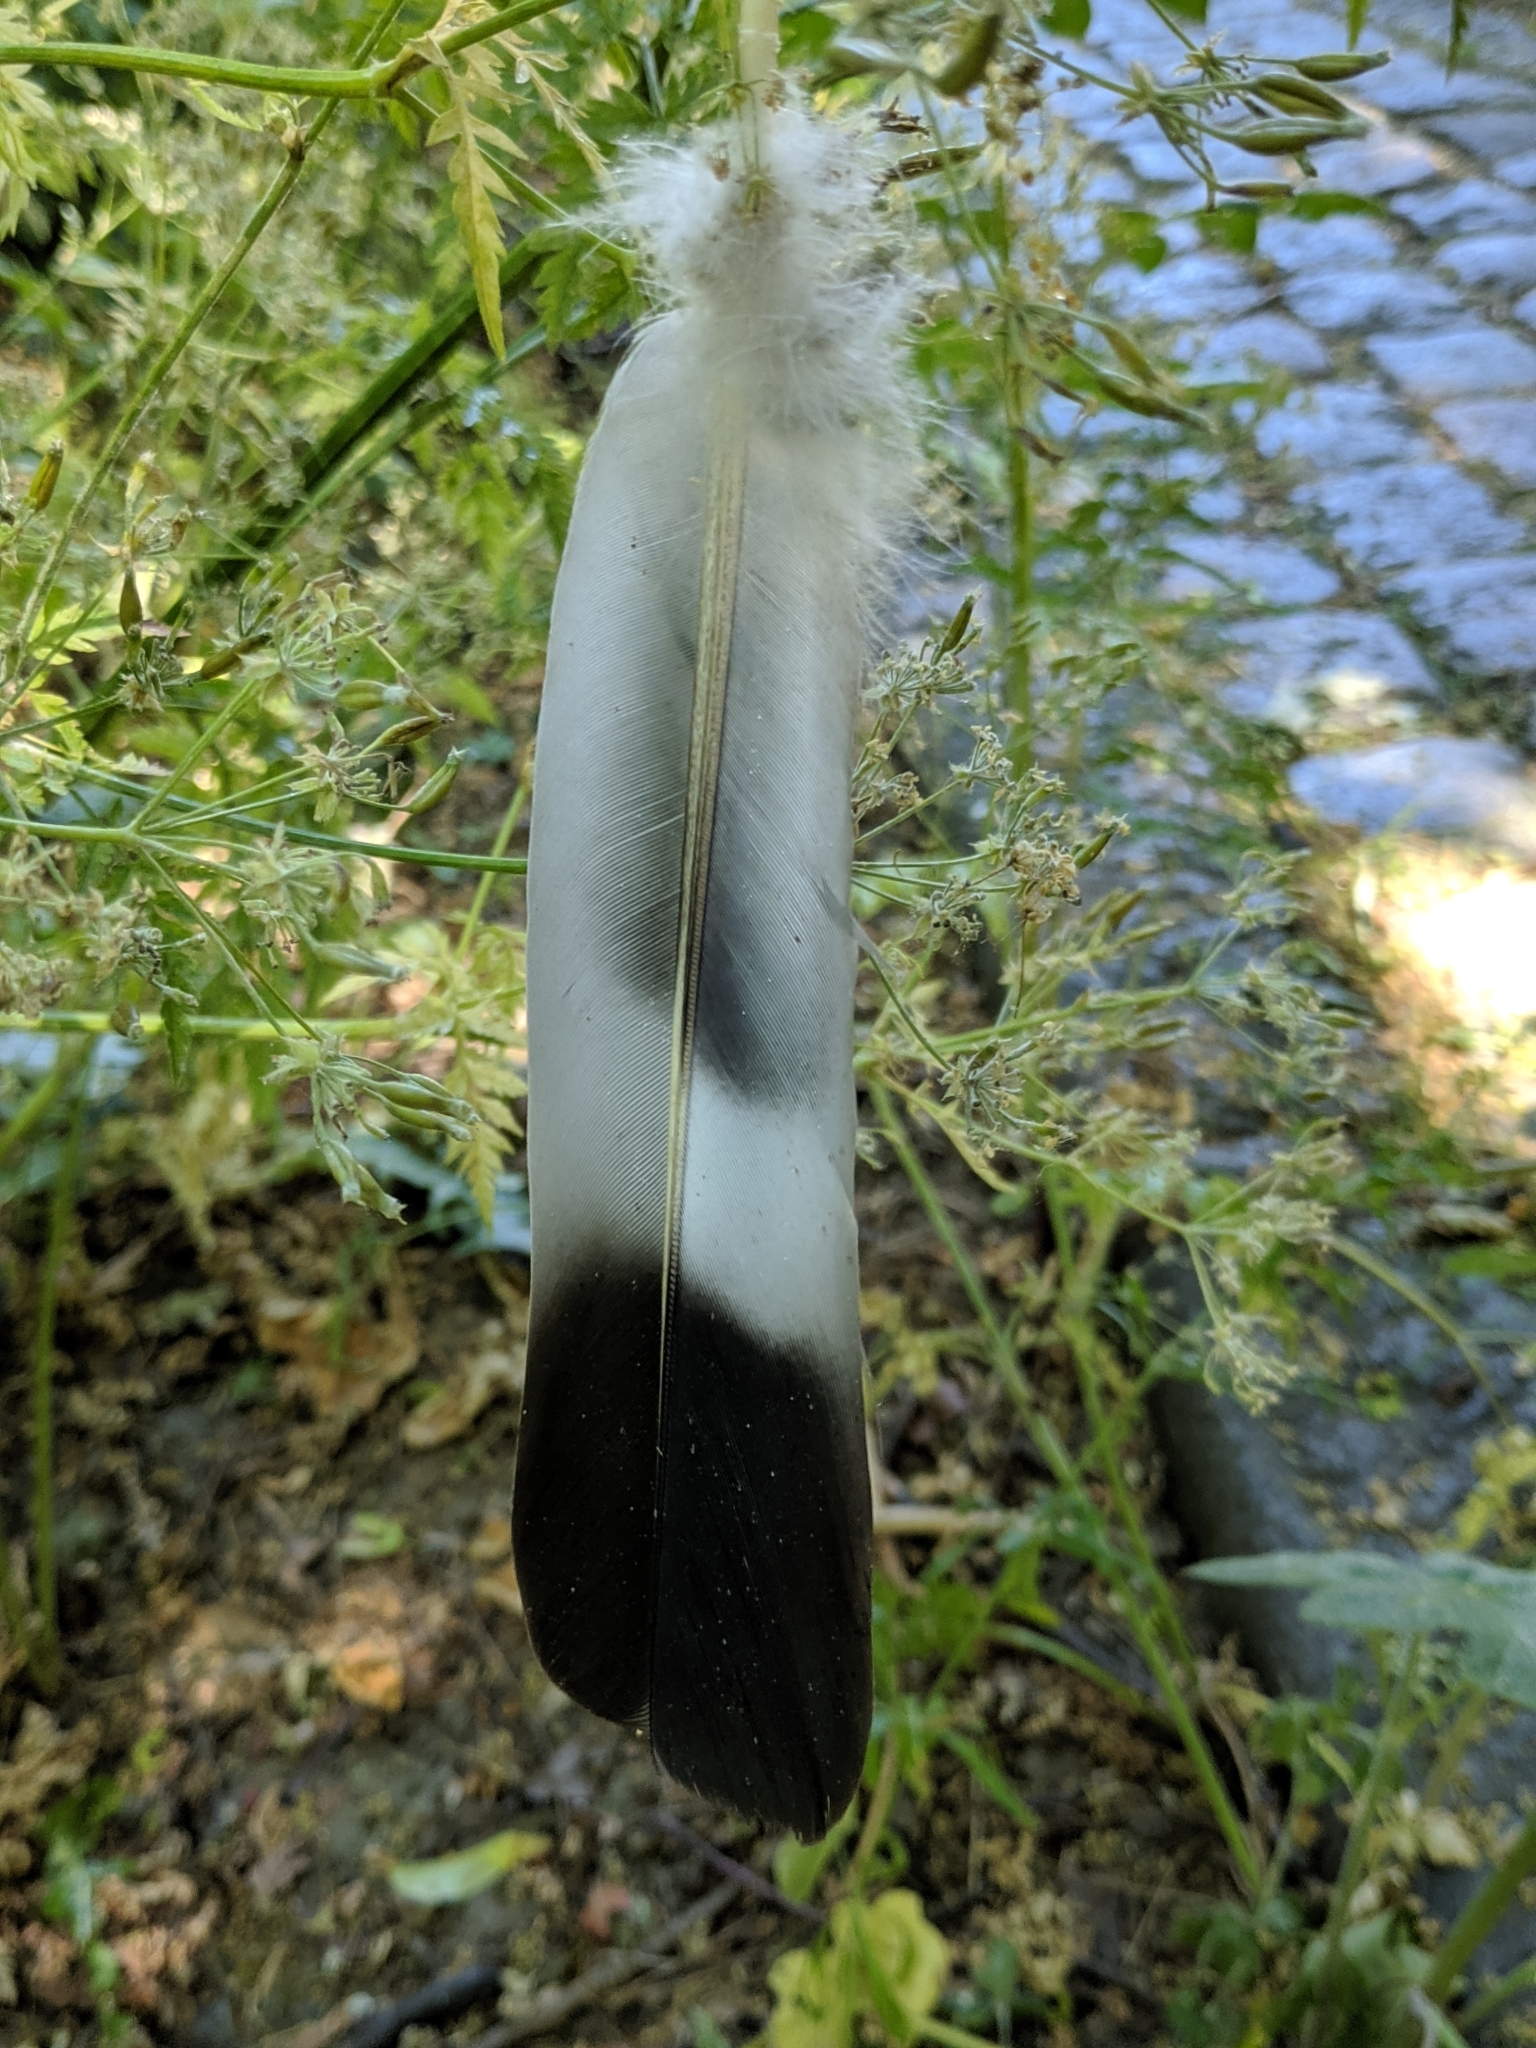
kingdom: Animalia
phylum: Chordata
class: Aves
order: Columbiformes
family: Columbidae
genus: Columba
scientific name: Columba palumbus
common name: Common wood pigeon
